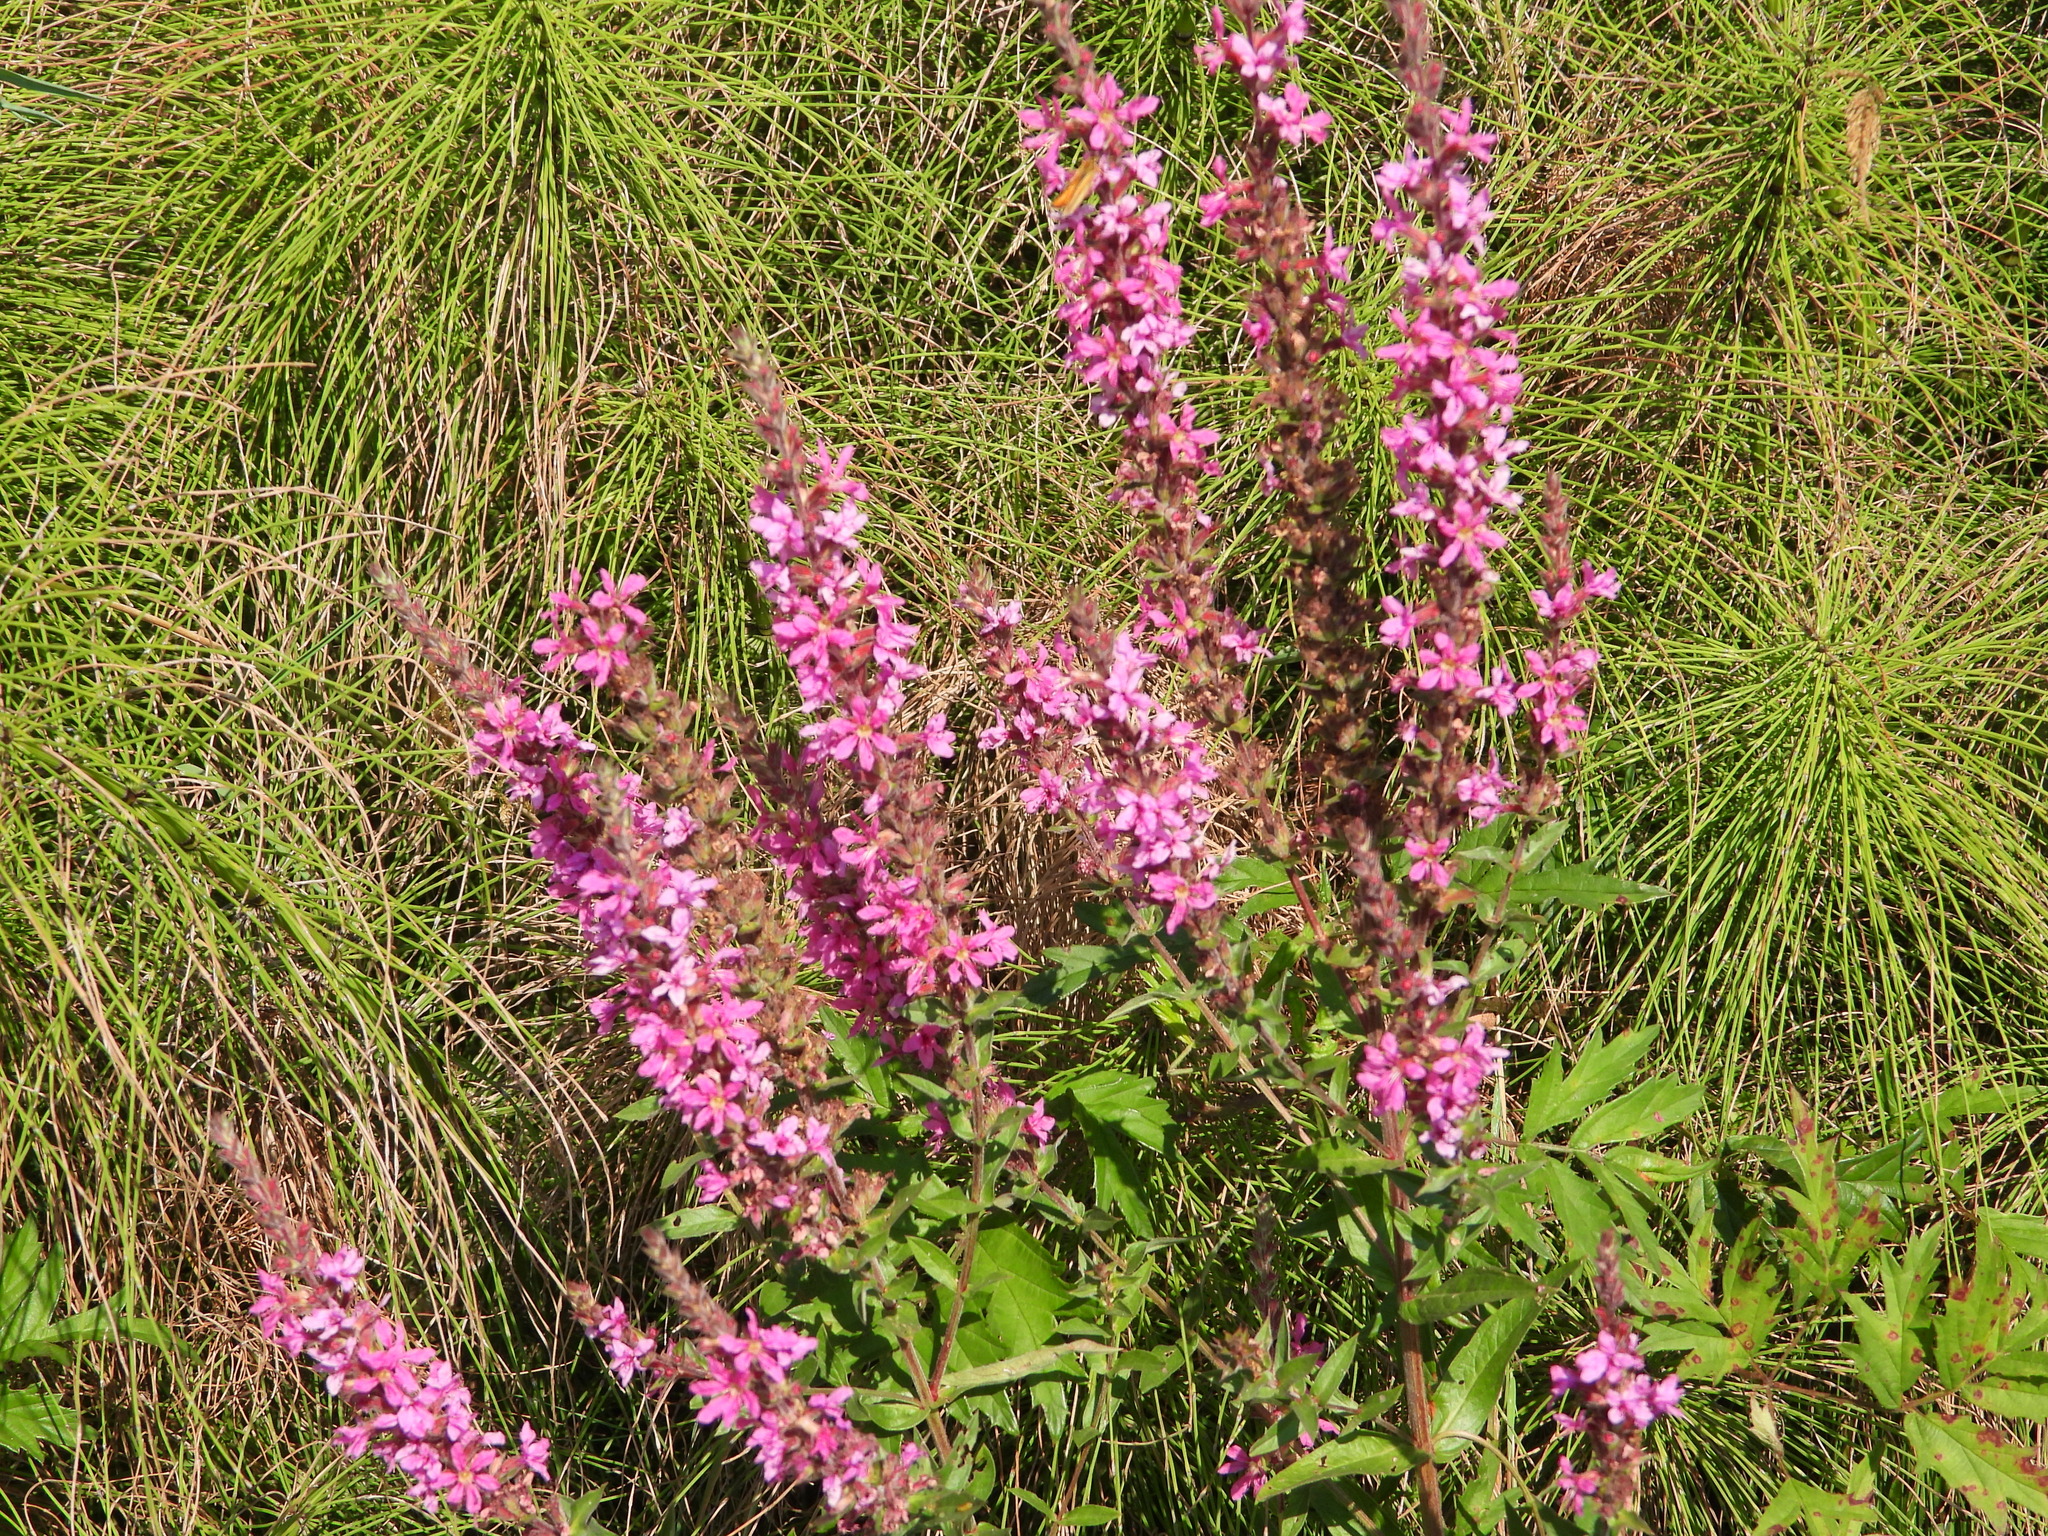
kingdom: Plantae
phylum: Tracheophyta
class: Magnoliopsida
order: Myrtales
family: Lythraceae
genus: Lythrum
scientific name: Lythrum salicaria
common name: Purple loosestrife
